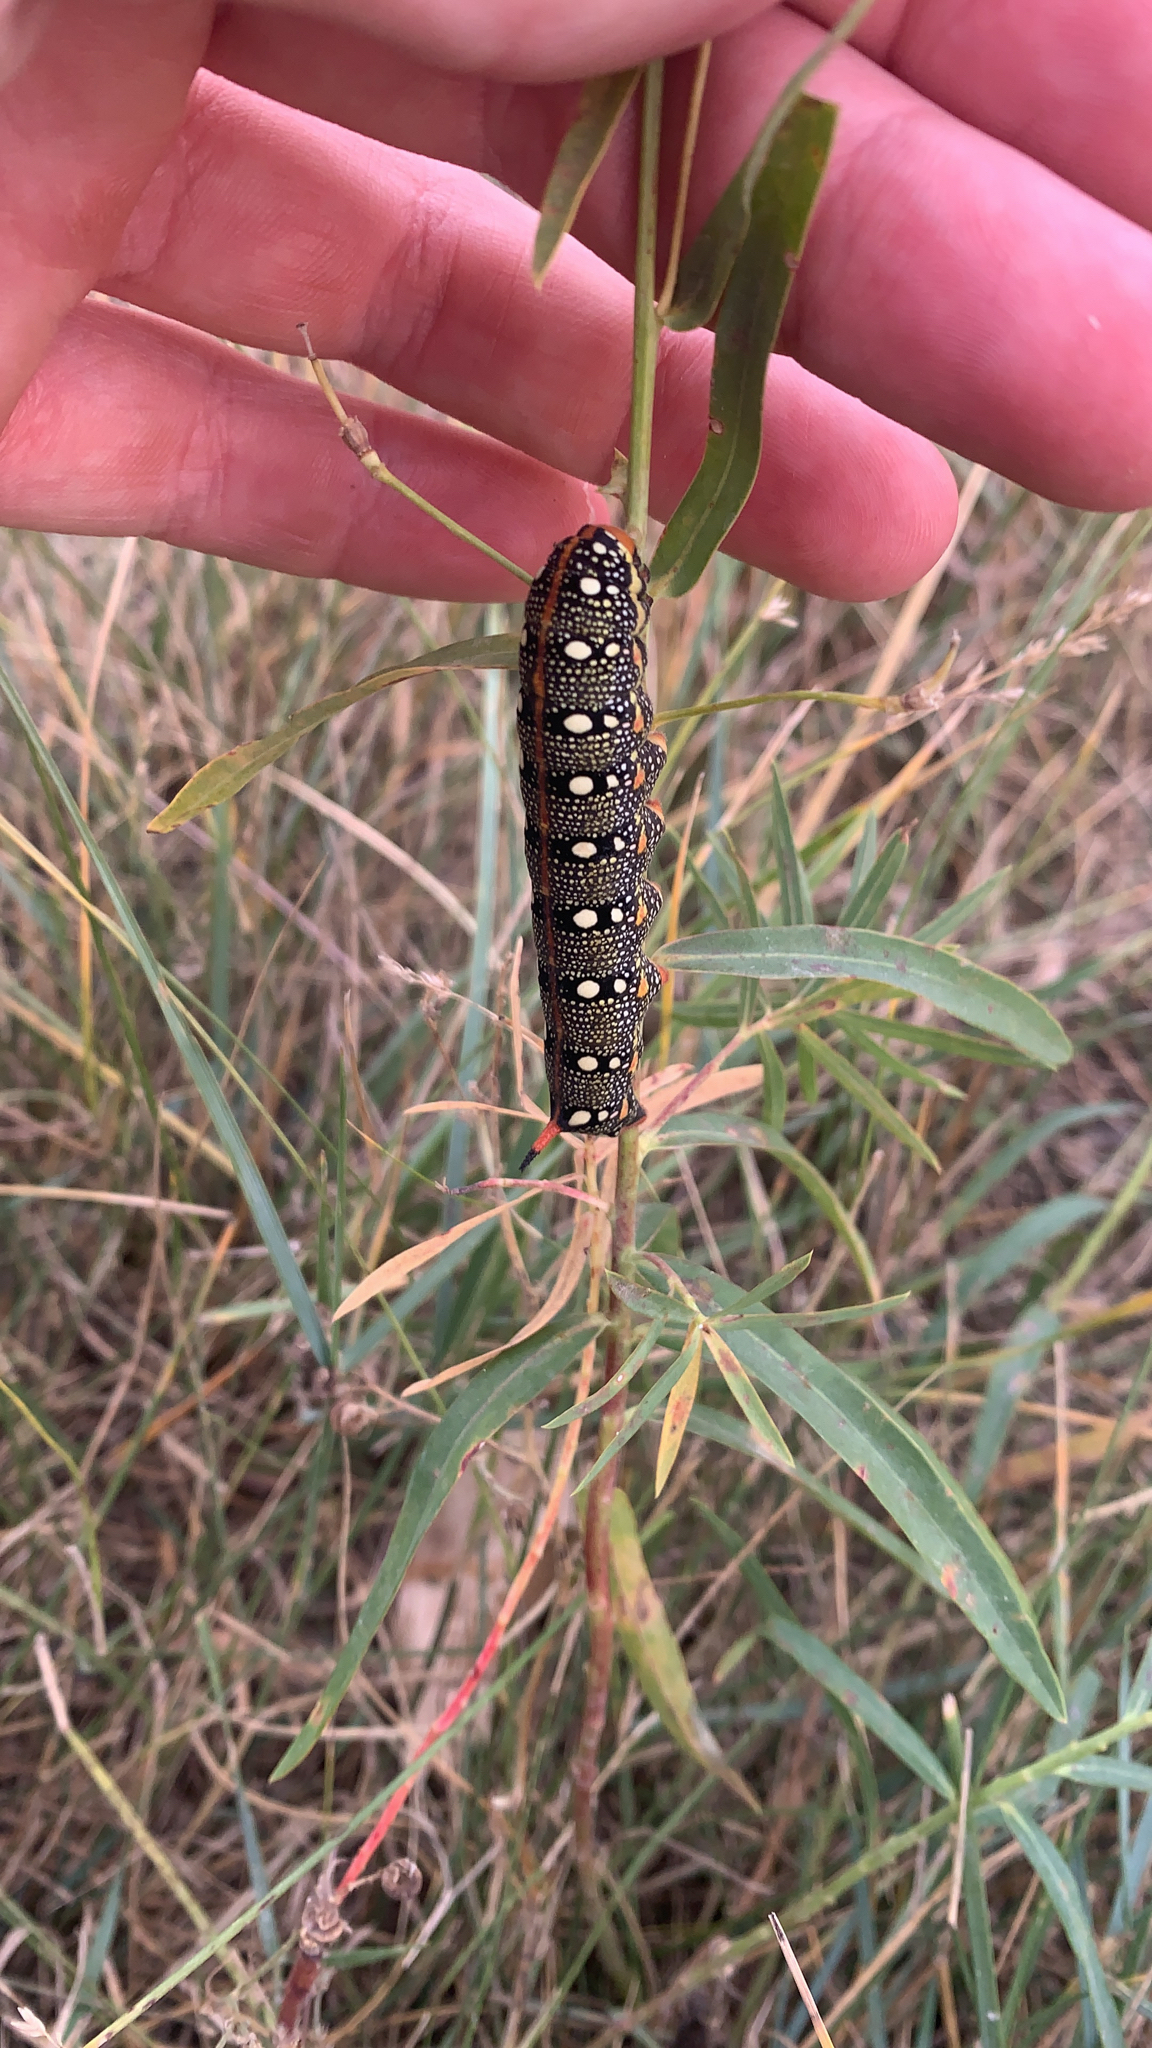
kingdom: Animalia
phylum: Arthropoda
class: Insecta
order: Lepidoptera
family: Sphingidae
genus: Hyles
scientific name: Hyles euphorbiae
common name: Spurge hawk-moth
